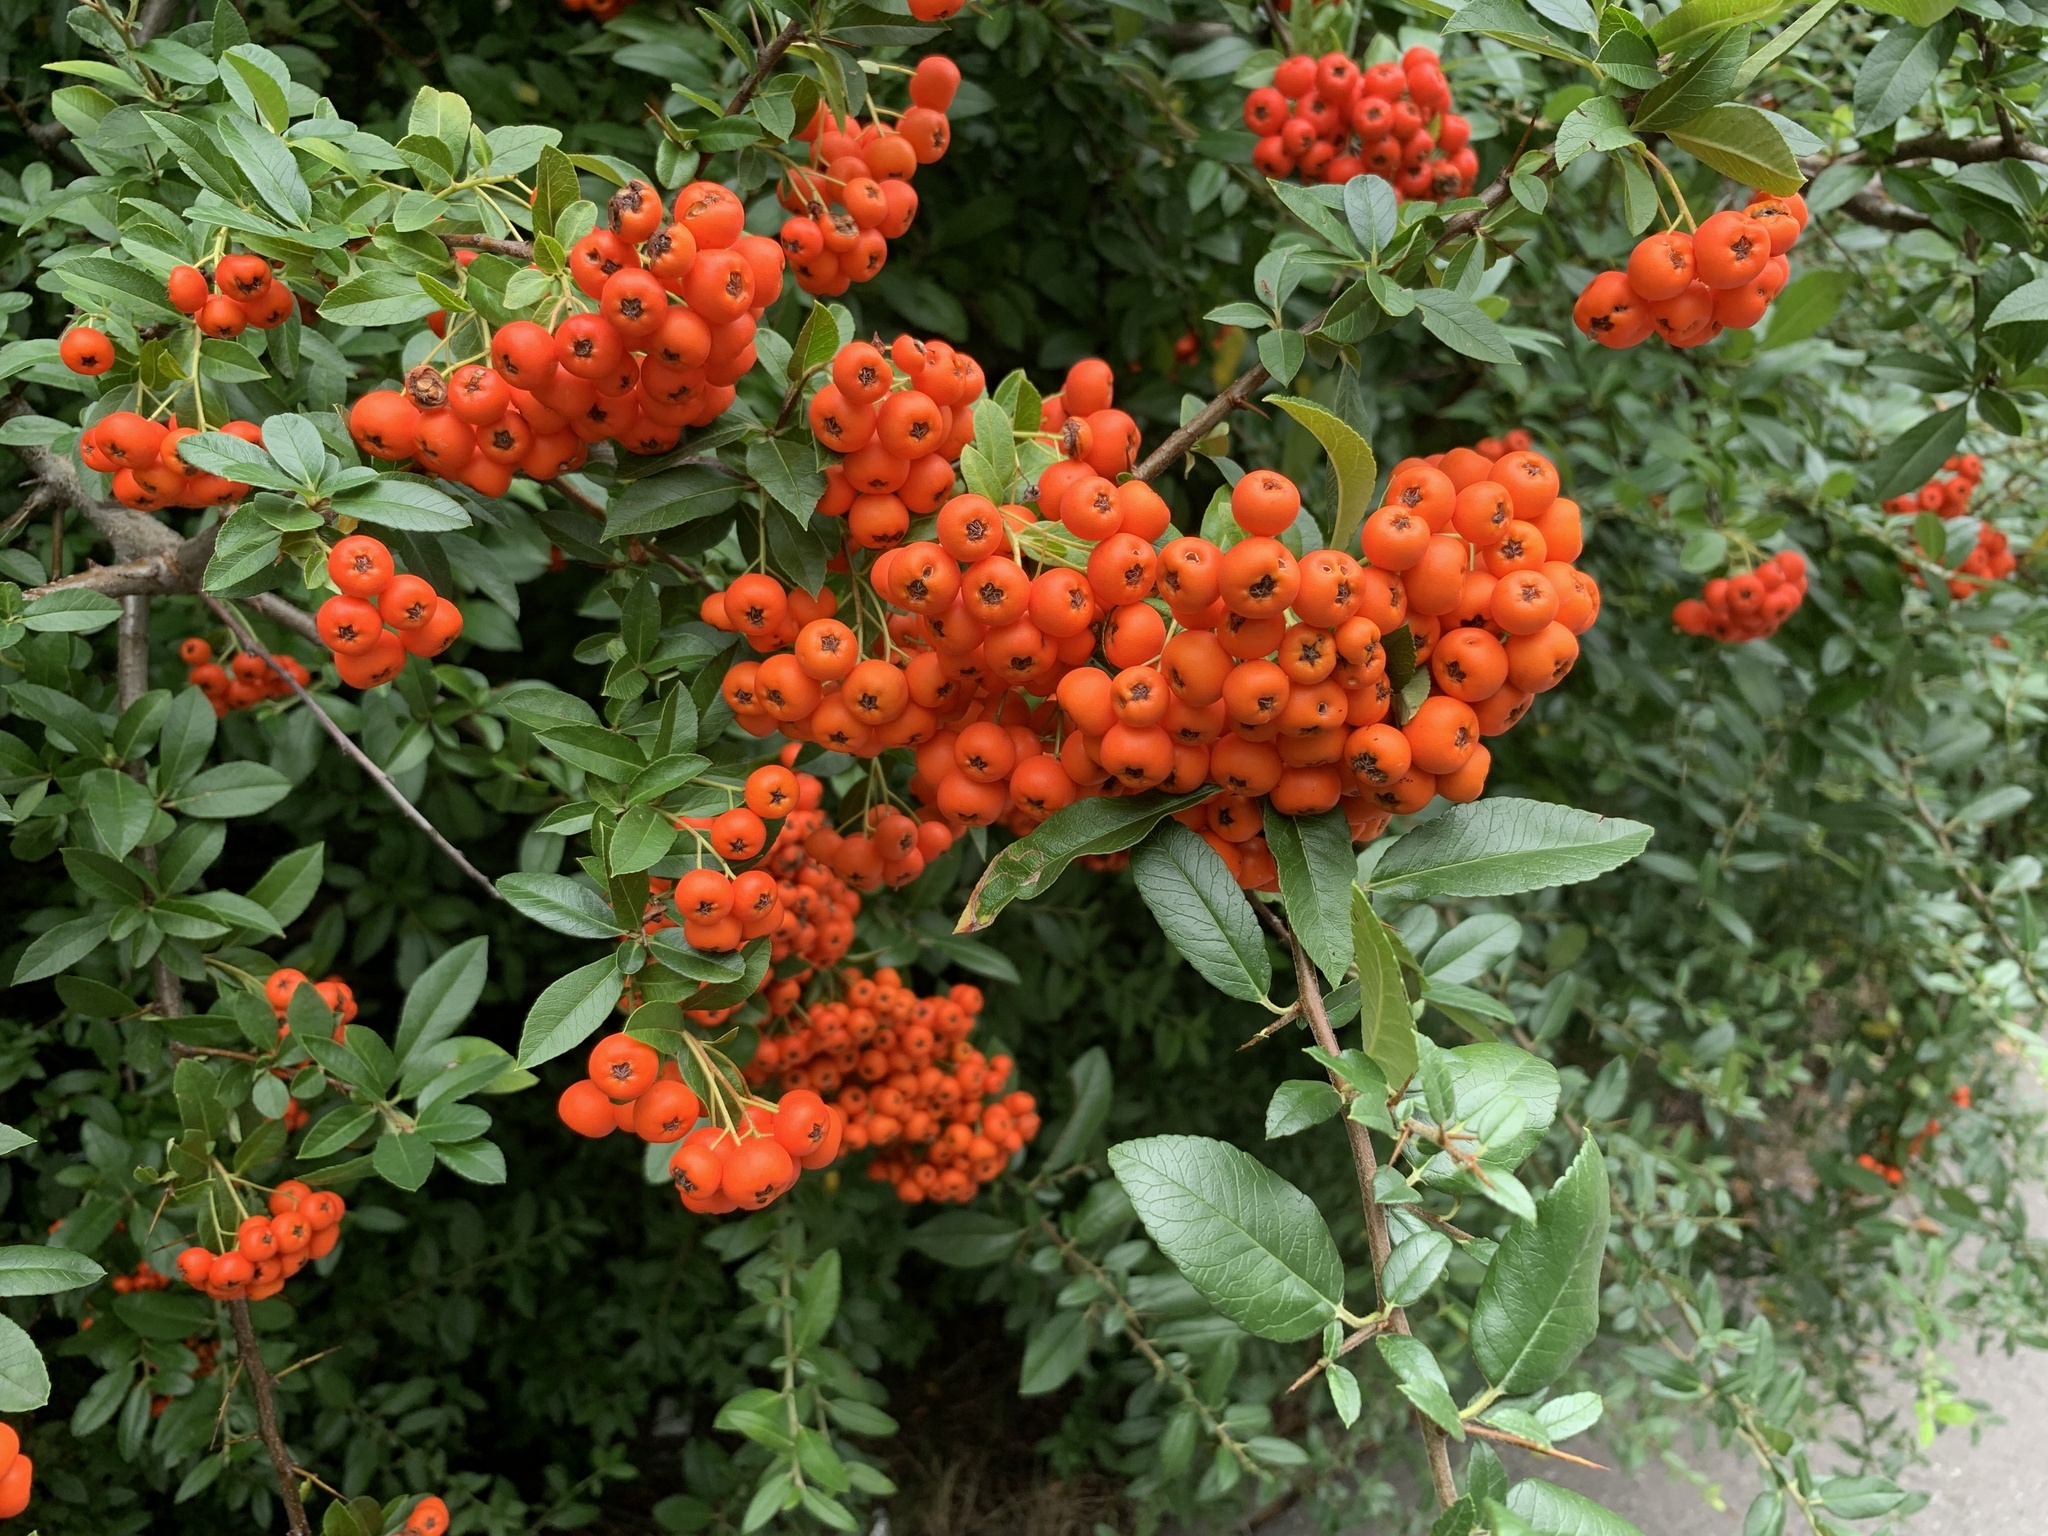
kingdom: Plantae
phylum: Tracheophyta
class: Magnoliopsida
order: Rosales
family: Rosaceae
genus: Pyracantha
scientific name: Pyracantha coccinea
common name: Firethorn
